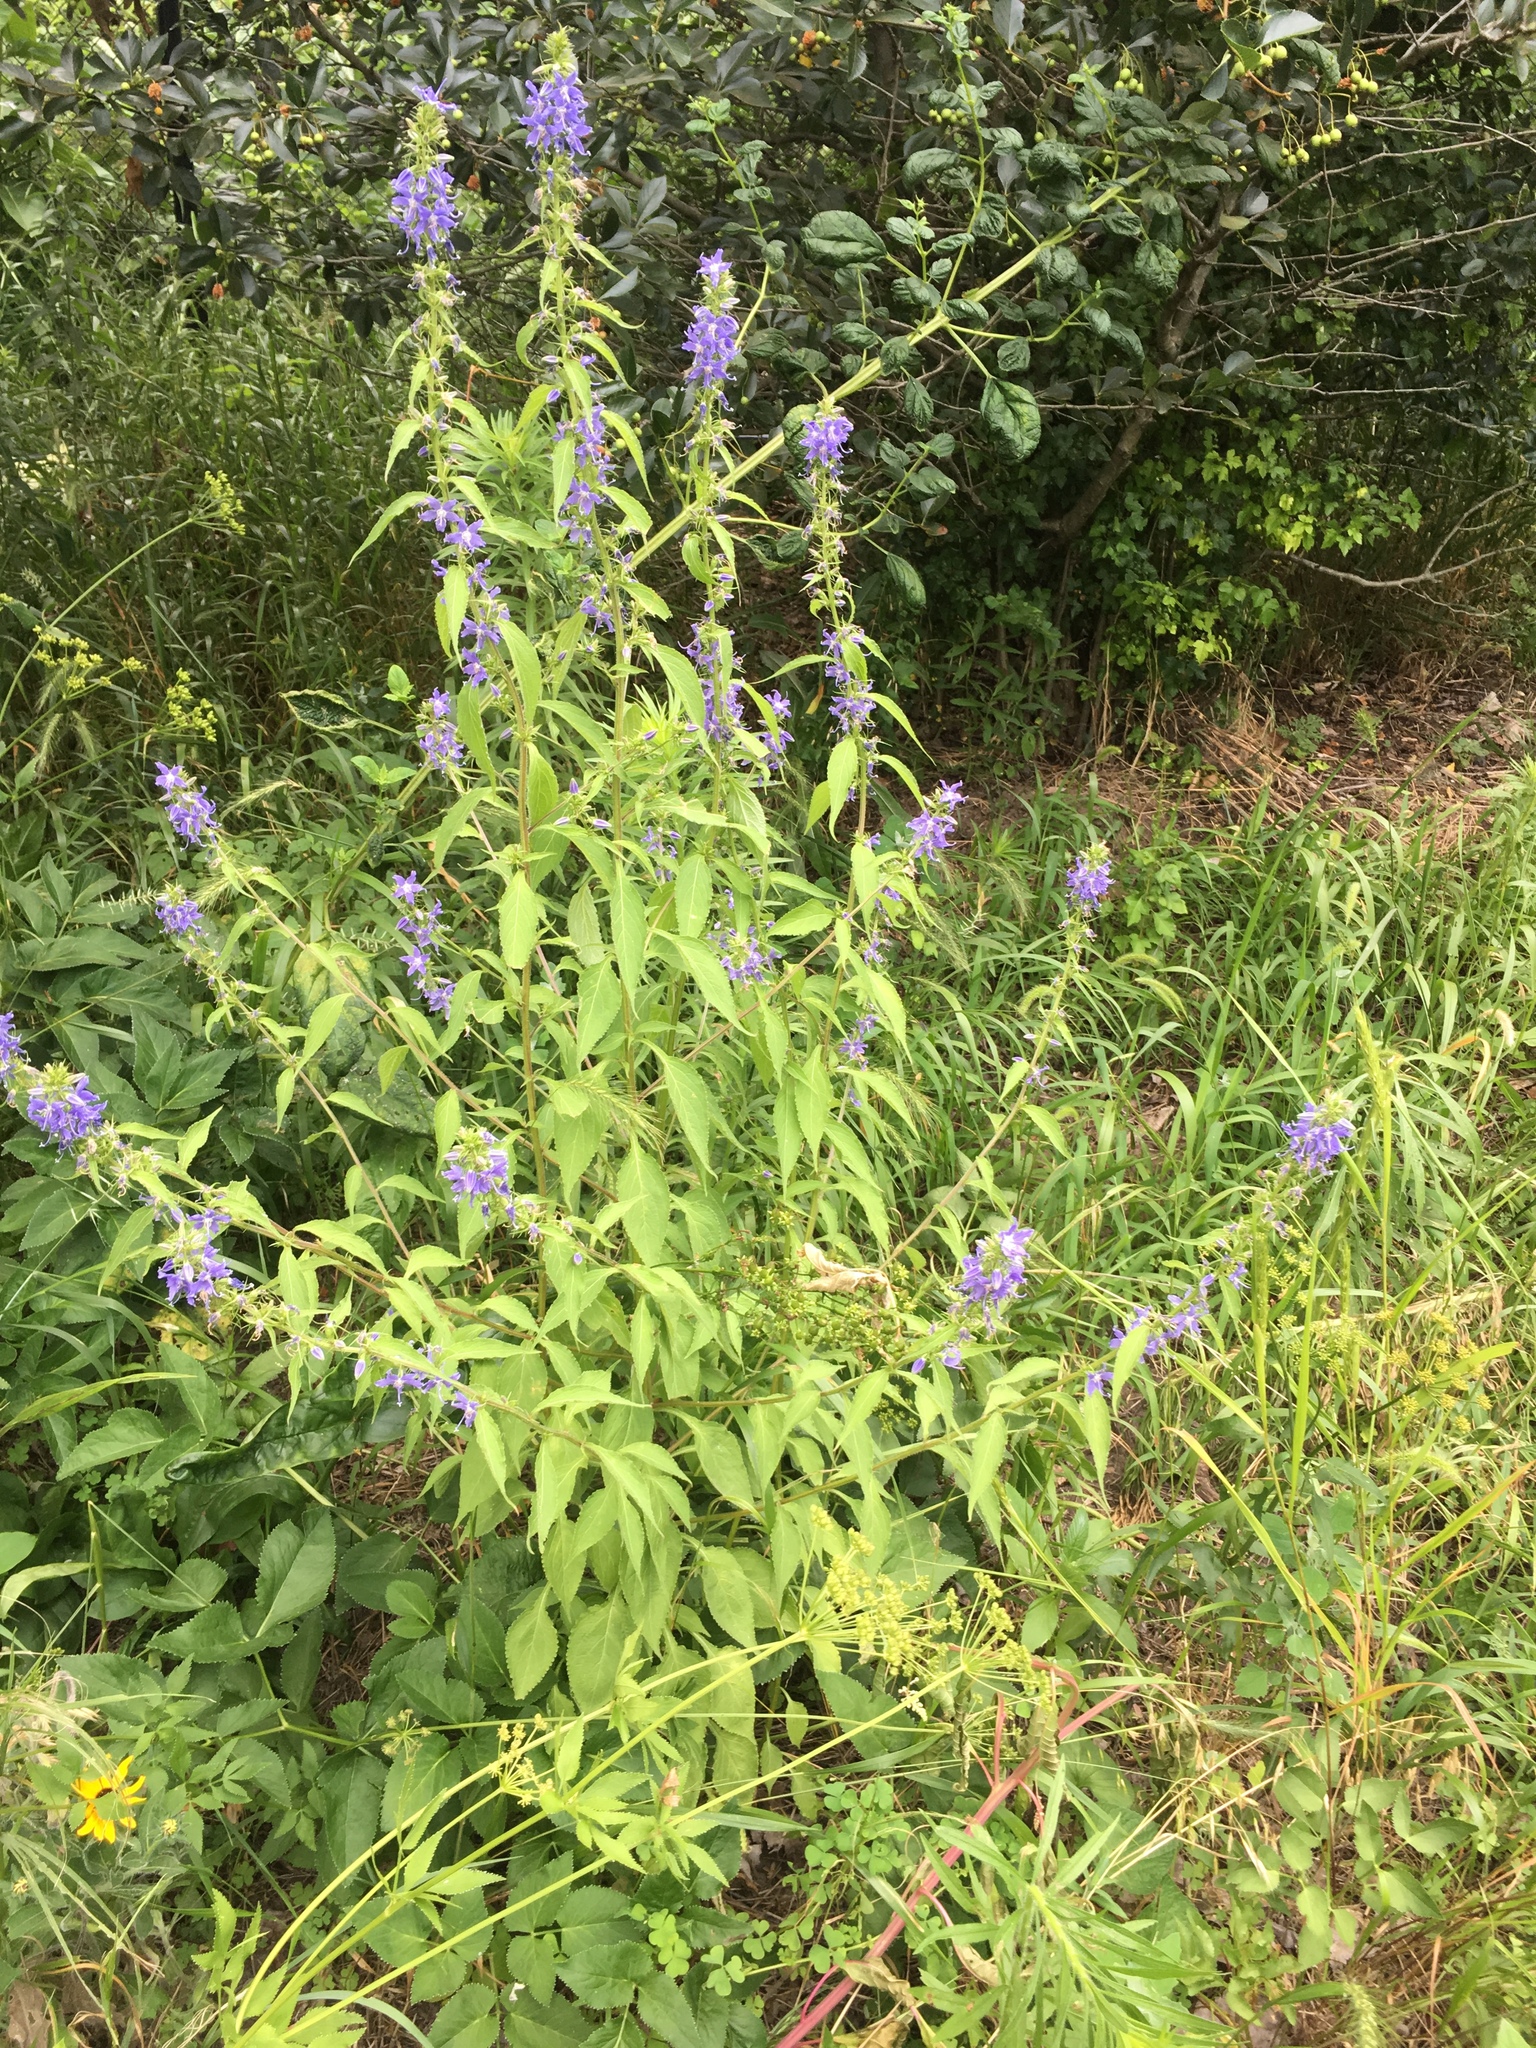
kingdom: Plantae
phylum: Tracheophyta
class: Magnoliopsida
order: Asterales
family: Campanulaceae
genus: Campanulastrum
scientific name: Campanulastrum americanum
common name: American bellflower
